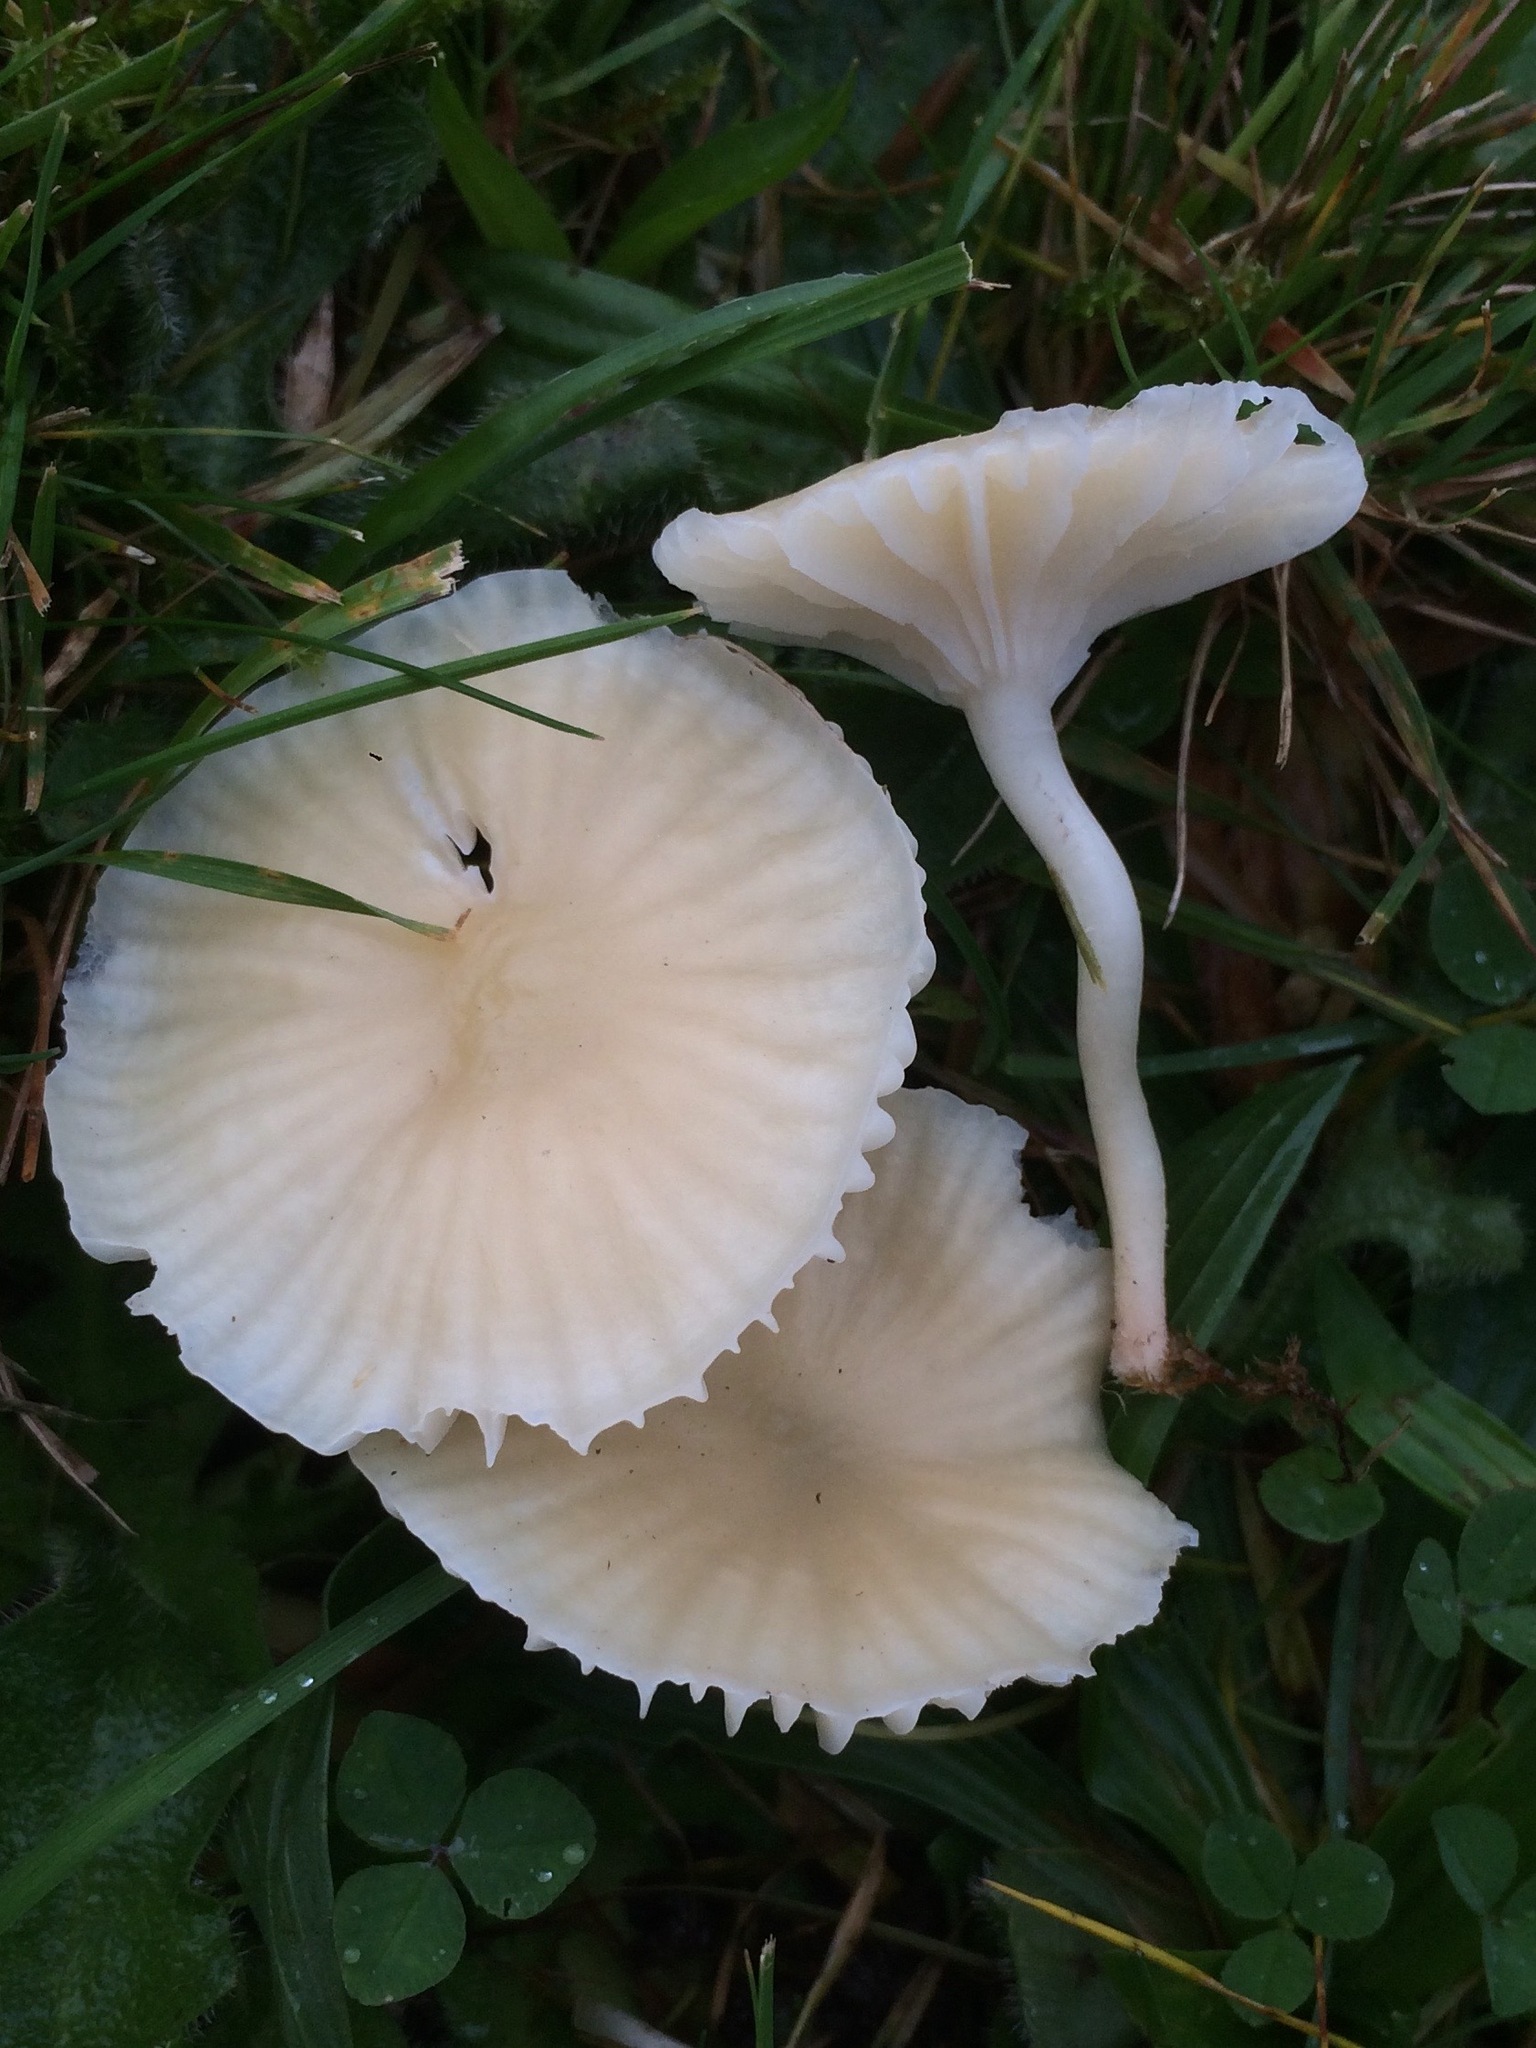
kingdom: Fungi
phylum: Basidiomycota
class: Agaricomycetes
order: Agaricales
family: Hygrophoraceae
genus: Cuphophyllus
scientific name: Cuphophyllus virgineus
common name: Snowy waxcap
